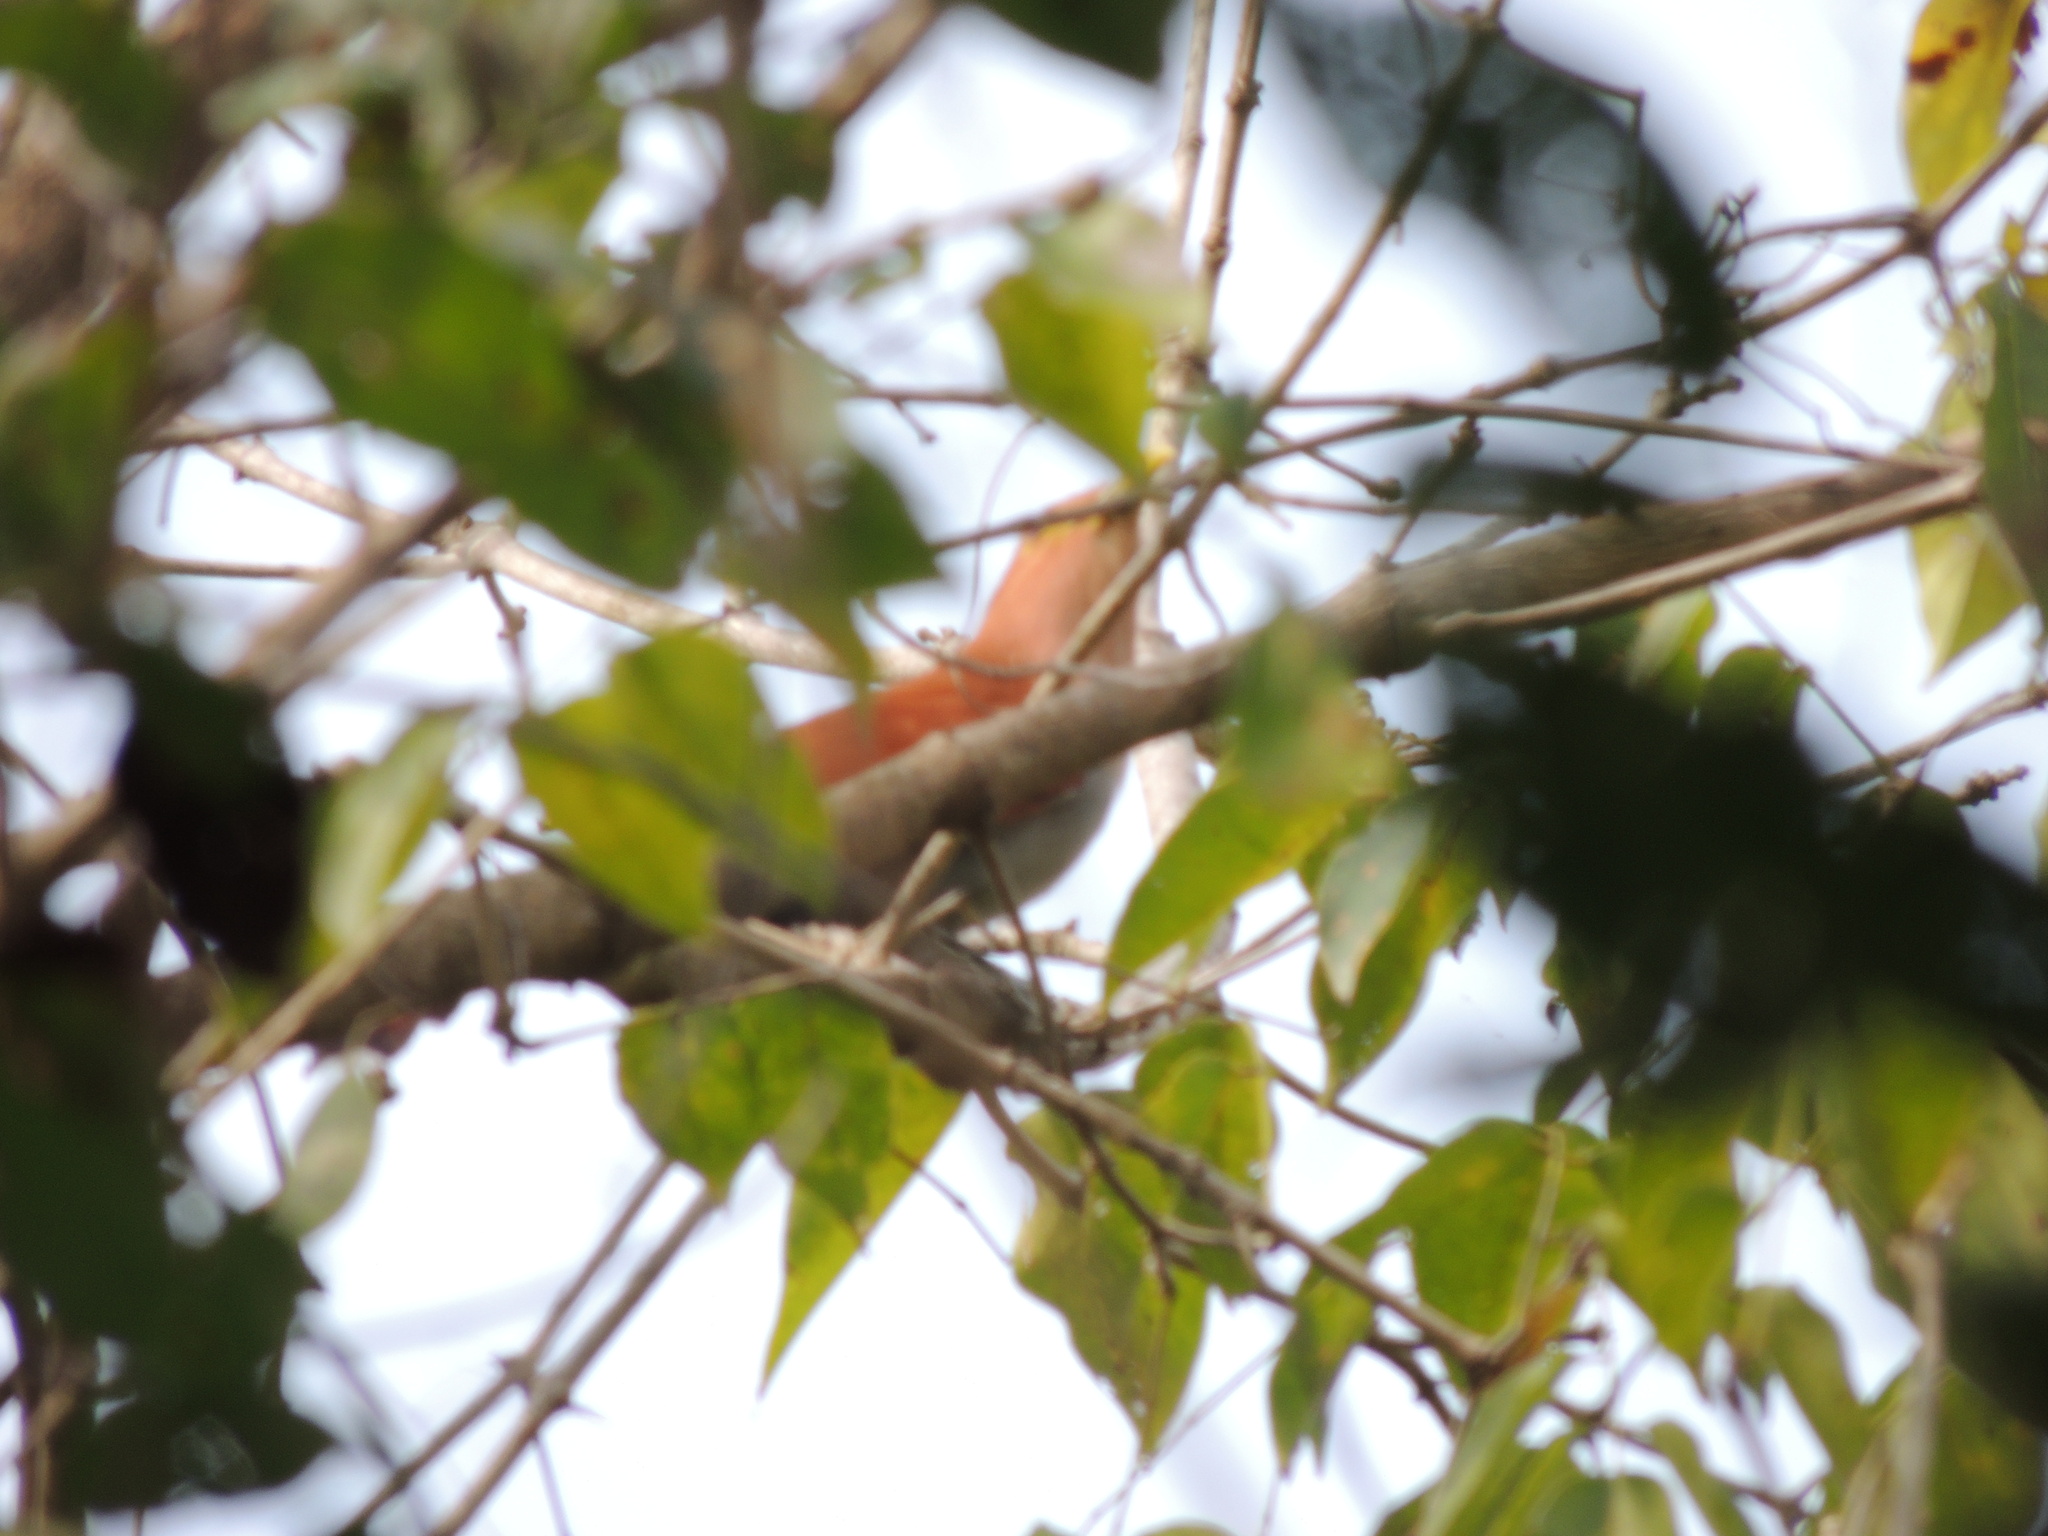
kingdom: Animalia
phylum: Chordata
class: Aves
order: Cuculiformes
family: Cuculidae
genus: Piaya
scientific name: Piaya cayana
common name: Squirrel cuckoo
